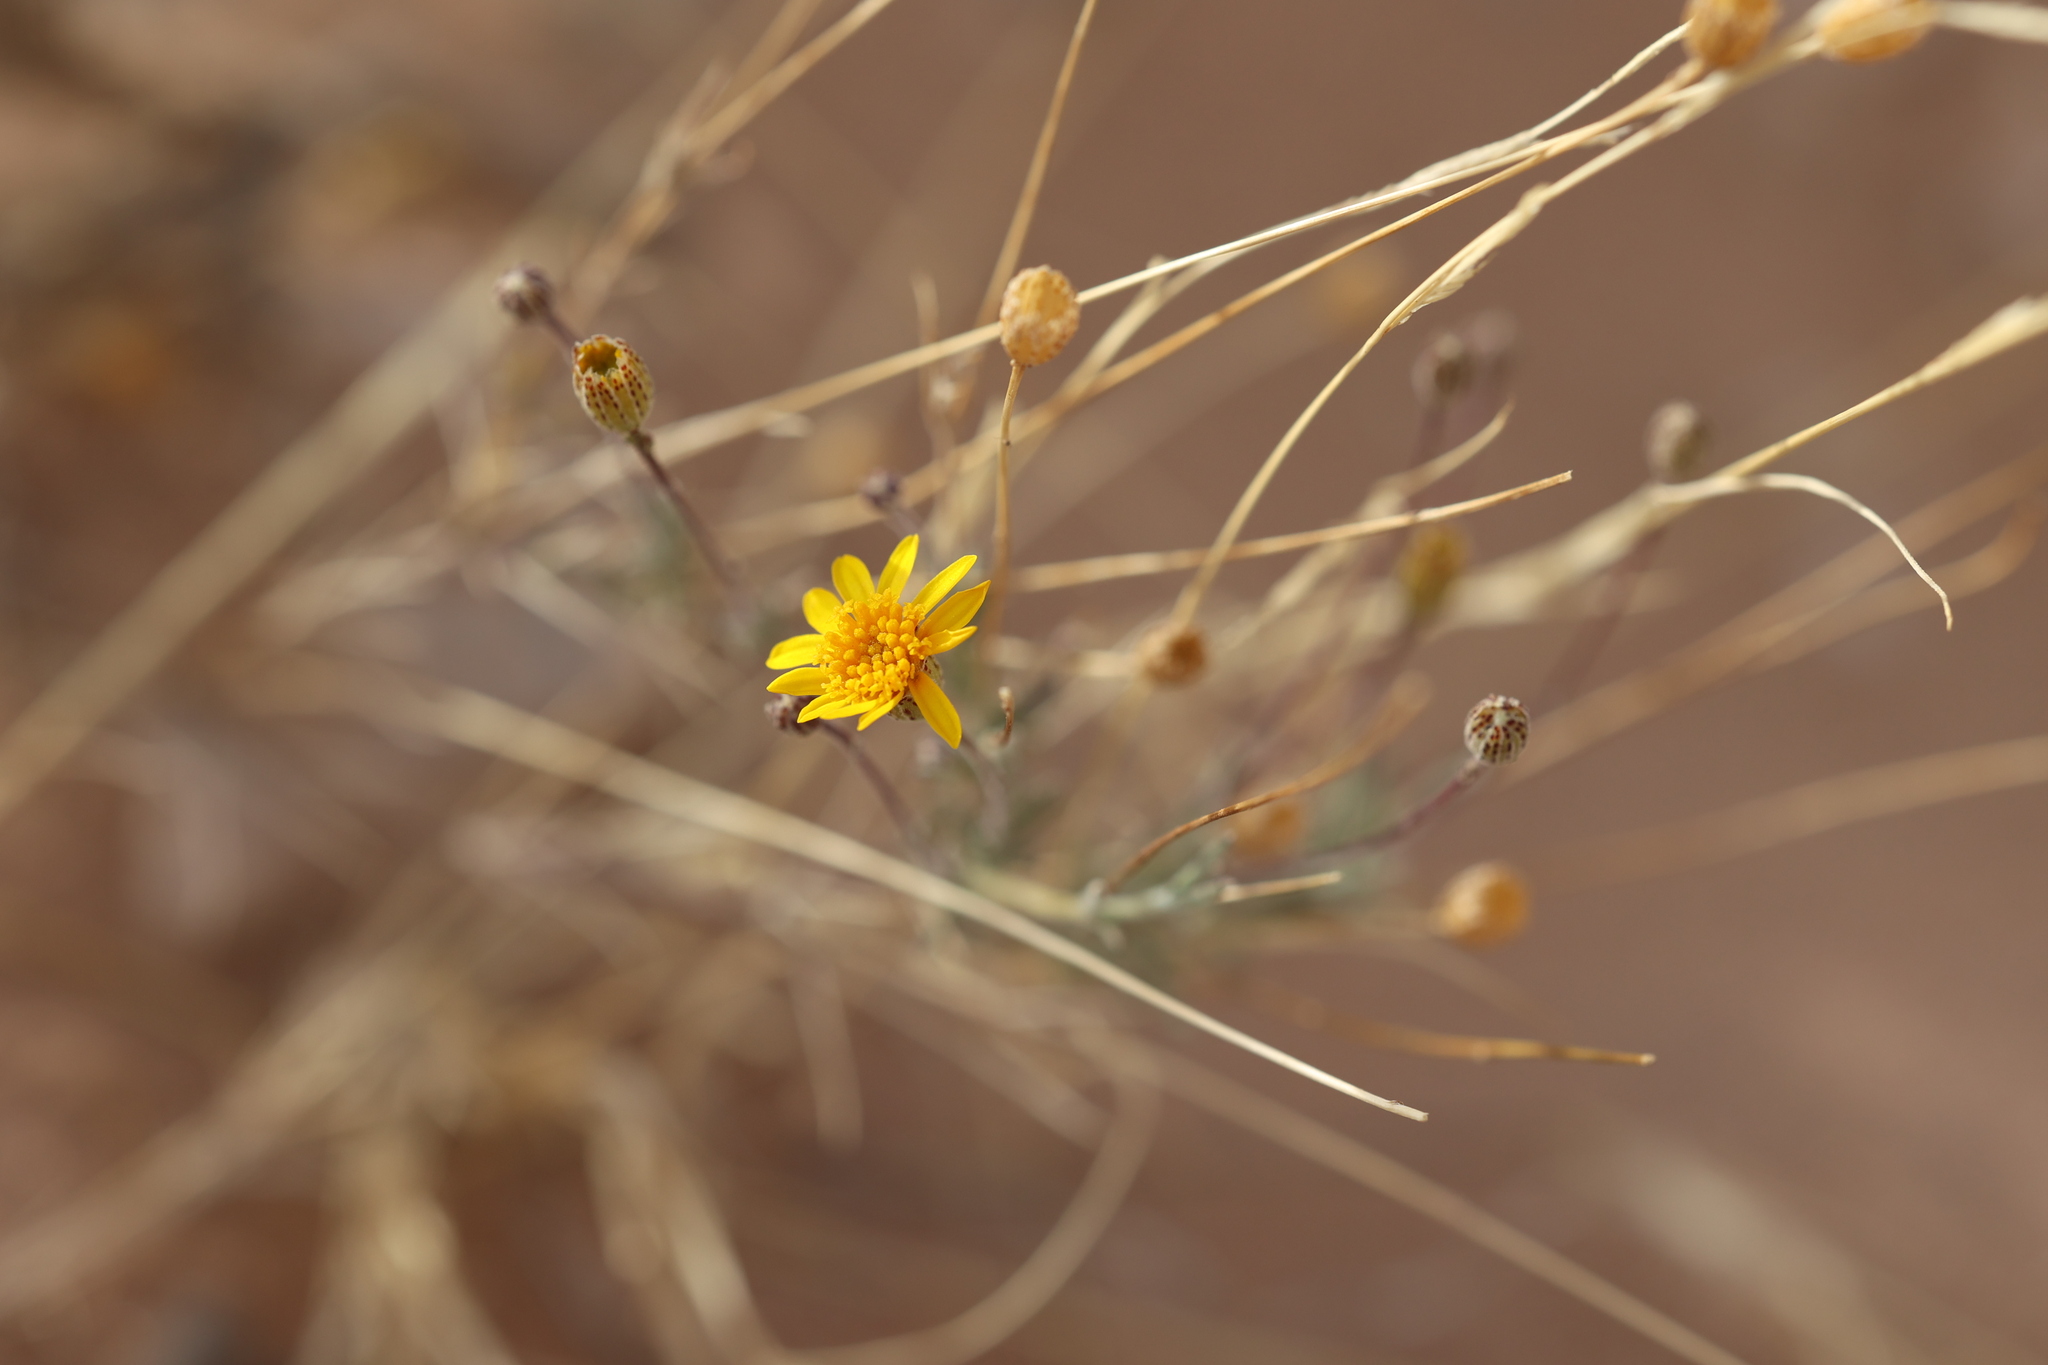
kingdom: Plantae
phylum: Tracheophyta
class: Magnoliopsida
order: Asterales
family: Asteraceae
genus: Thymophylla
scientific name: Thymophylla pentachaeta
